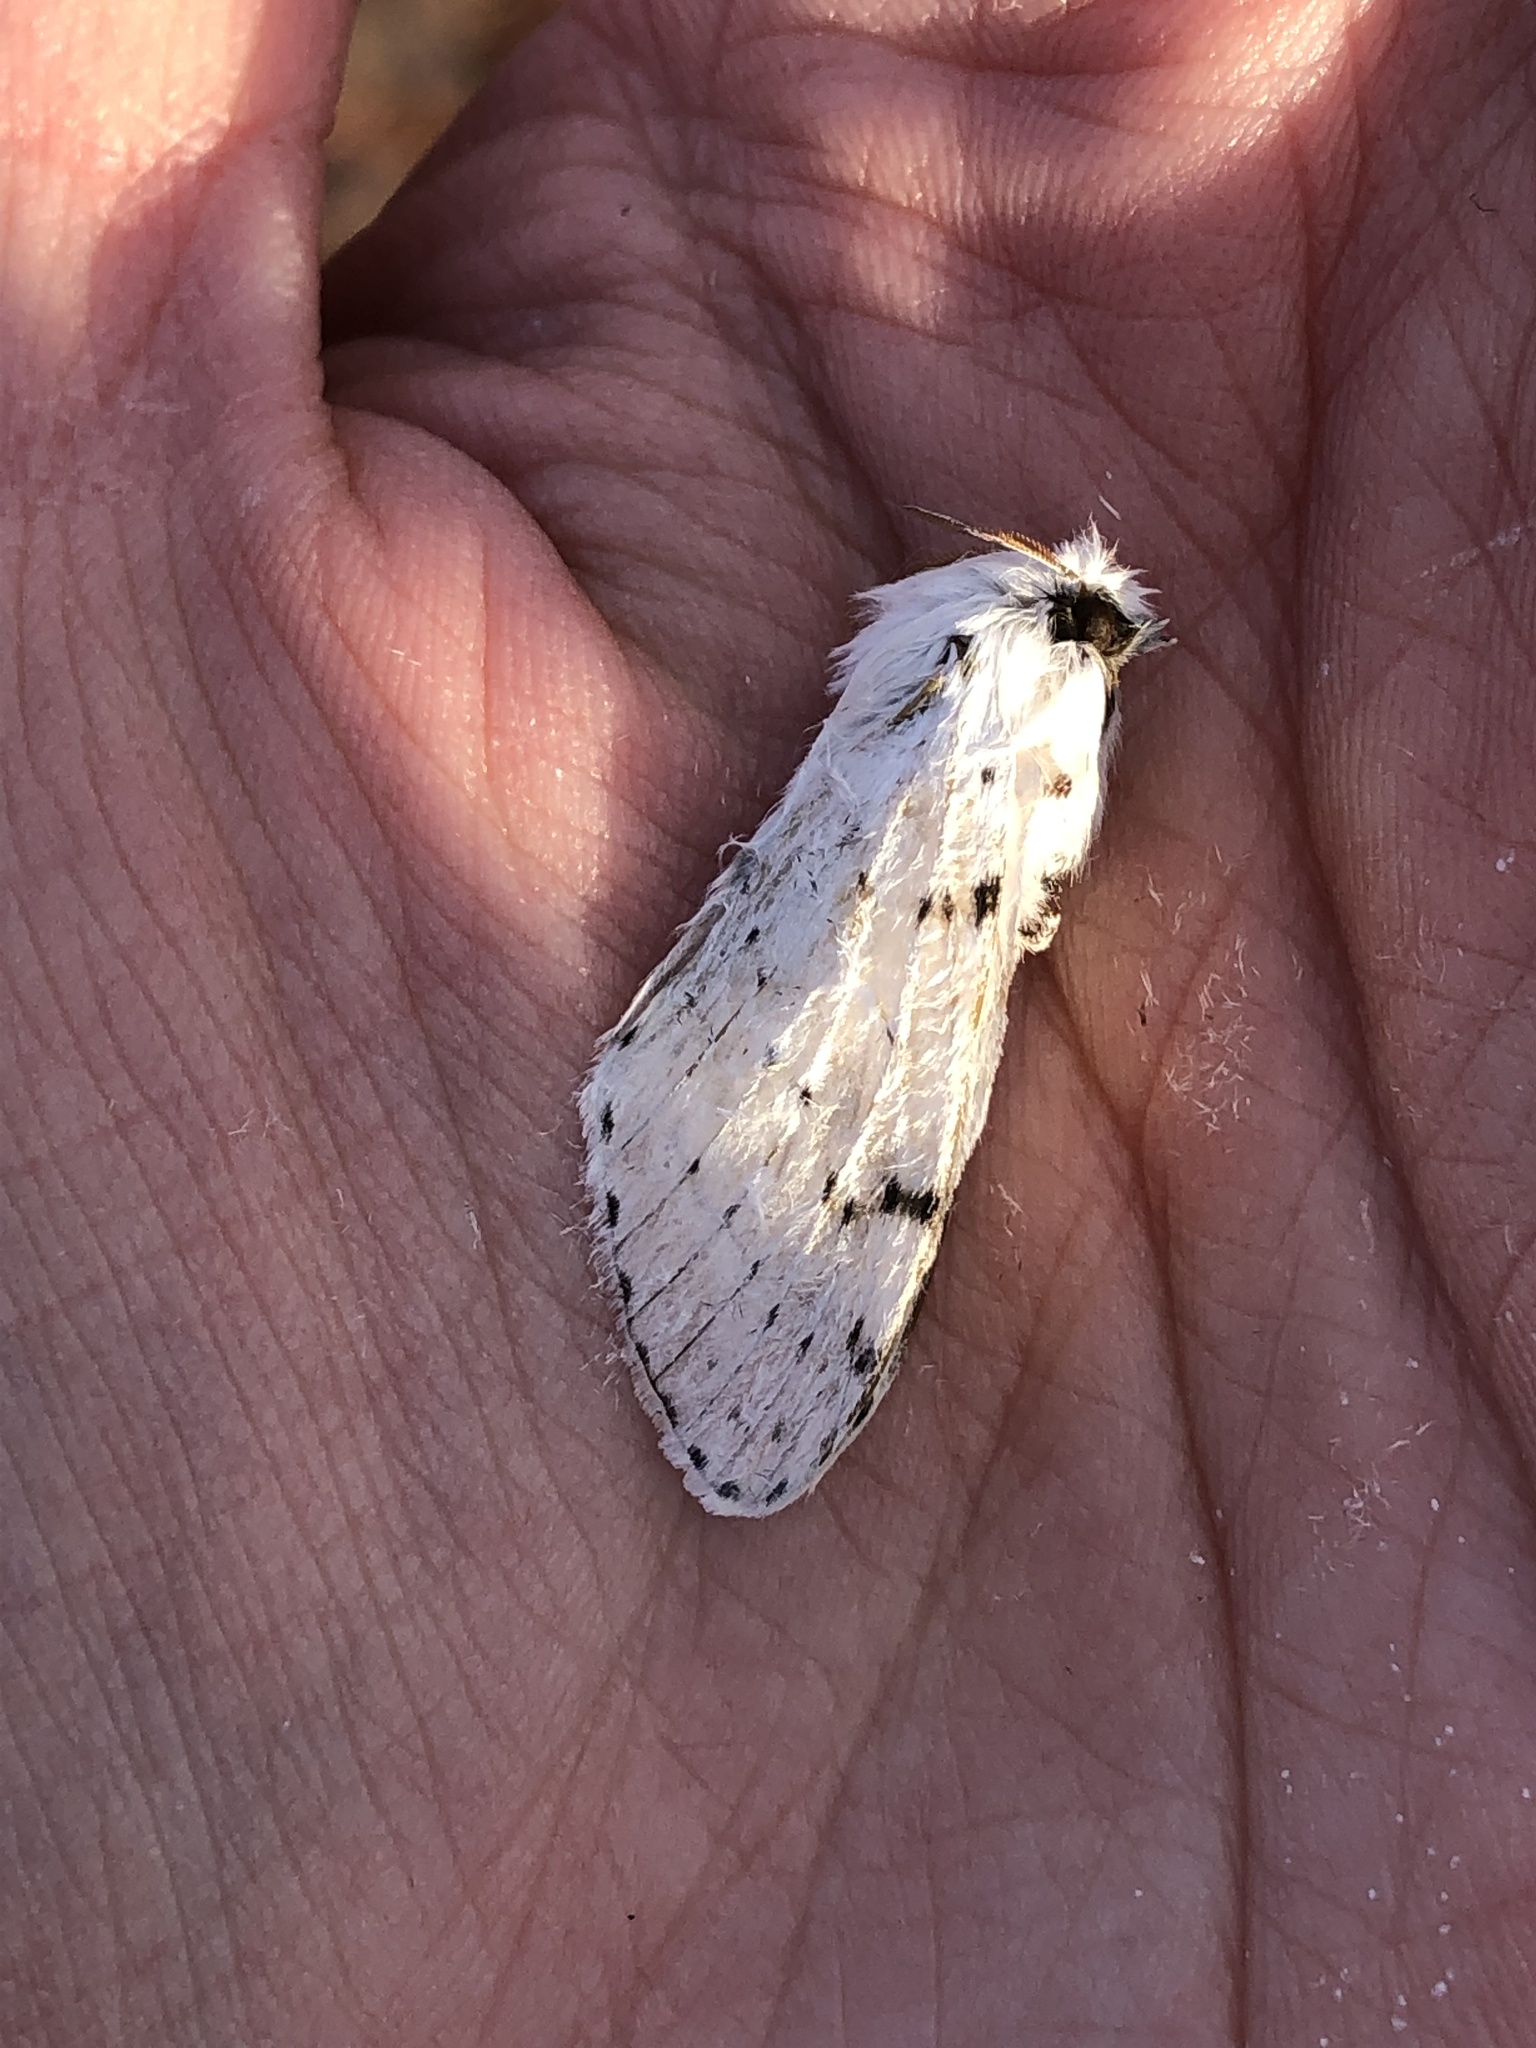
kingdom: Animalia
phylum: Arthropoda
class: Insecta
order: Lepidoptera
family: Lasiocampidae
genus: Artace
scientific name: Artace cribrarius
